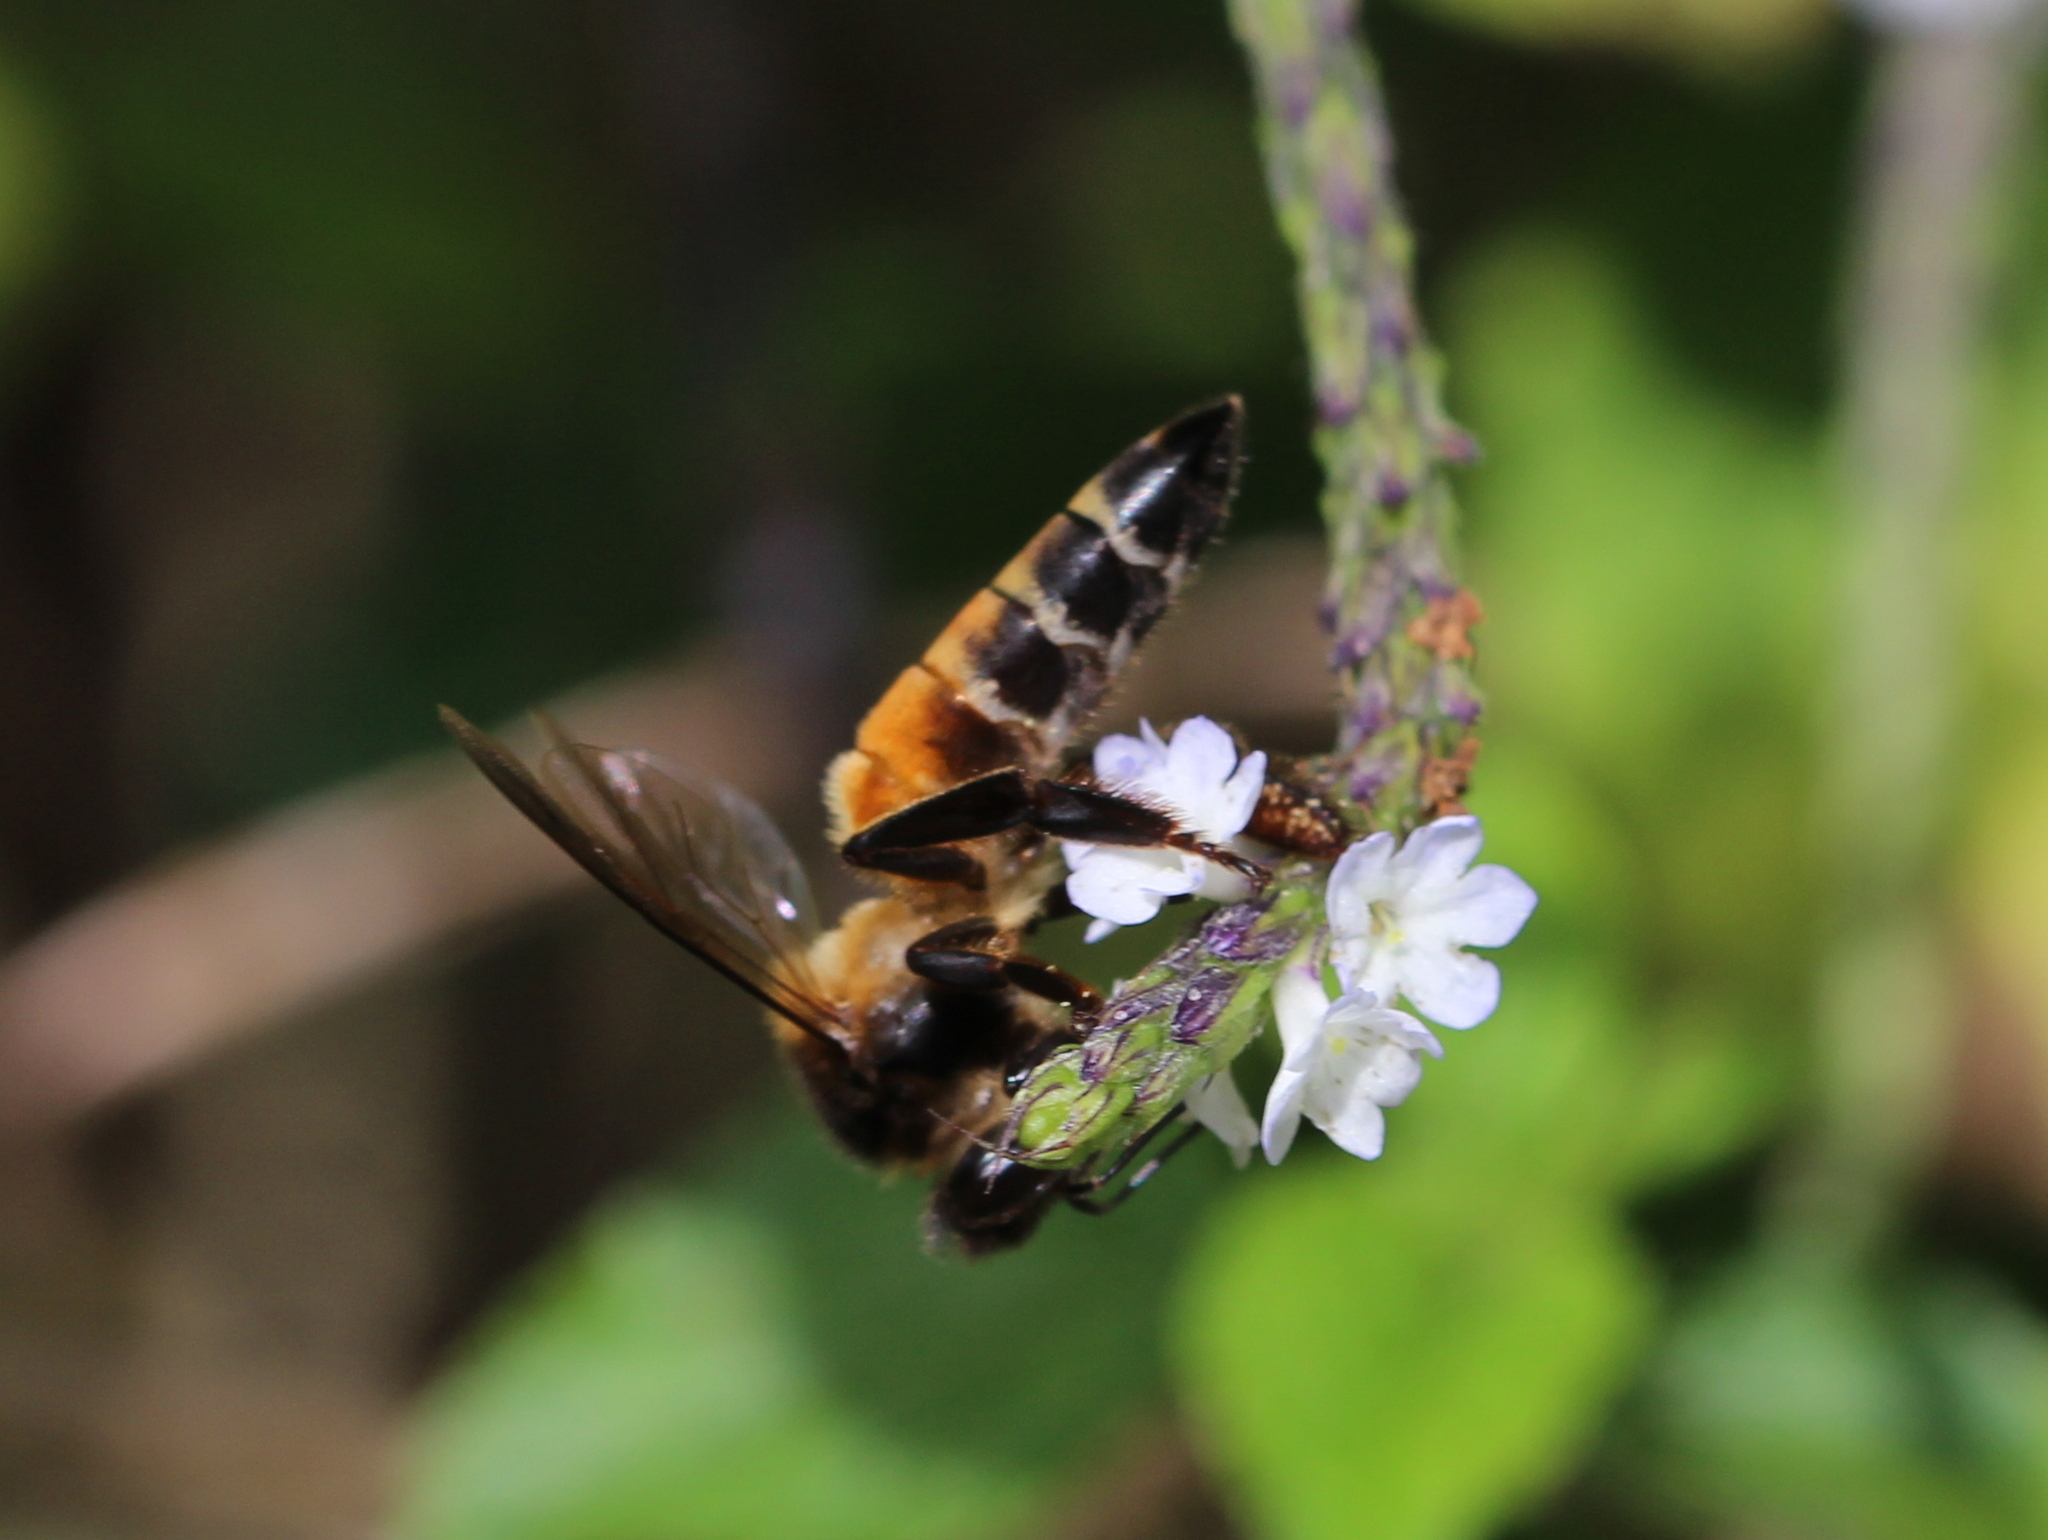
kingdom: Animalia
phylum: Arthropoda
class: Insecta
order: Hymenoptera
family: Apidae
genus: Apis
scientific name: Apis dorsata
